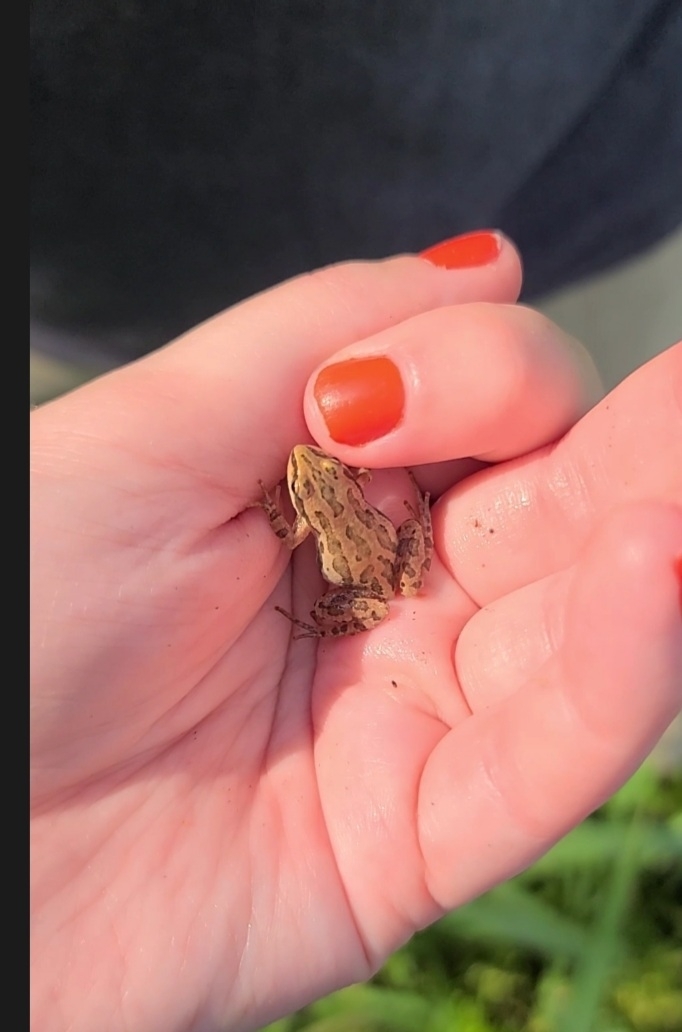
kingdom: Animalia
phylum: Chordata
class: Amphibia
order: Anura
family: Hylidae
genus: Pseudacris
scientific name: Pseudacris maculata
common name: Boreal chorus frog
